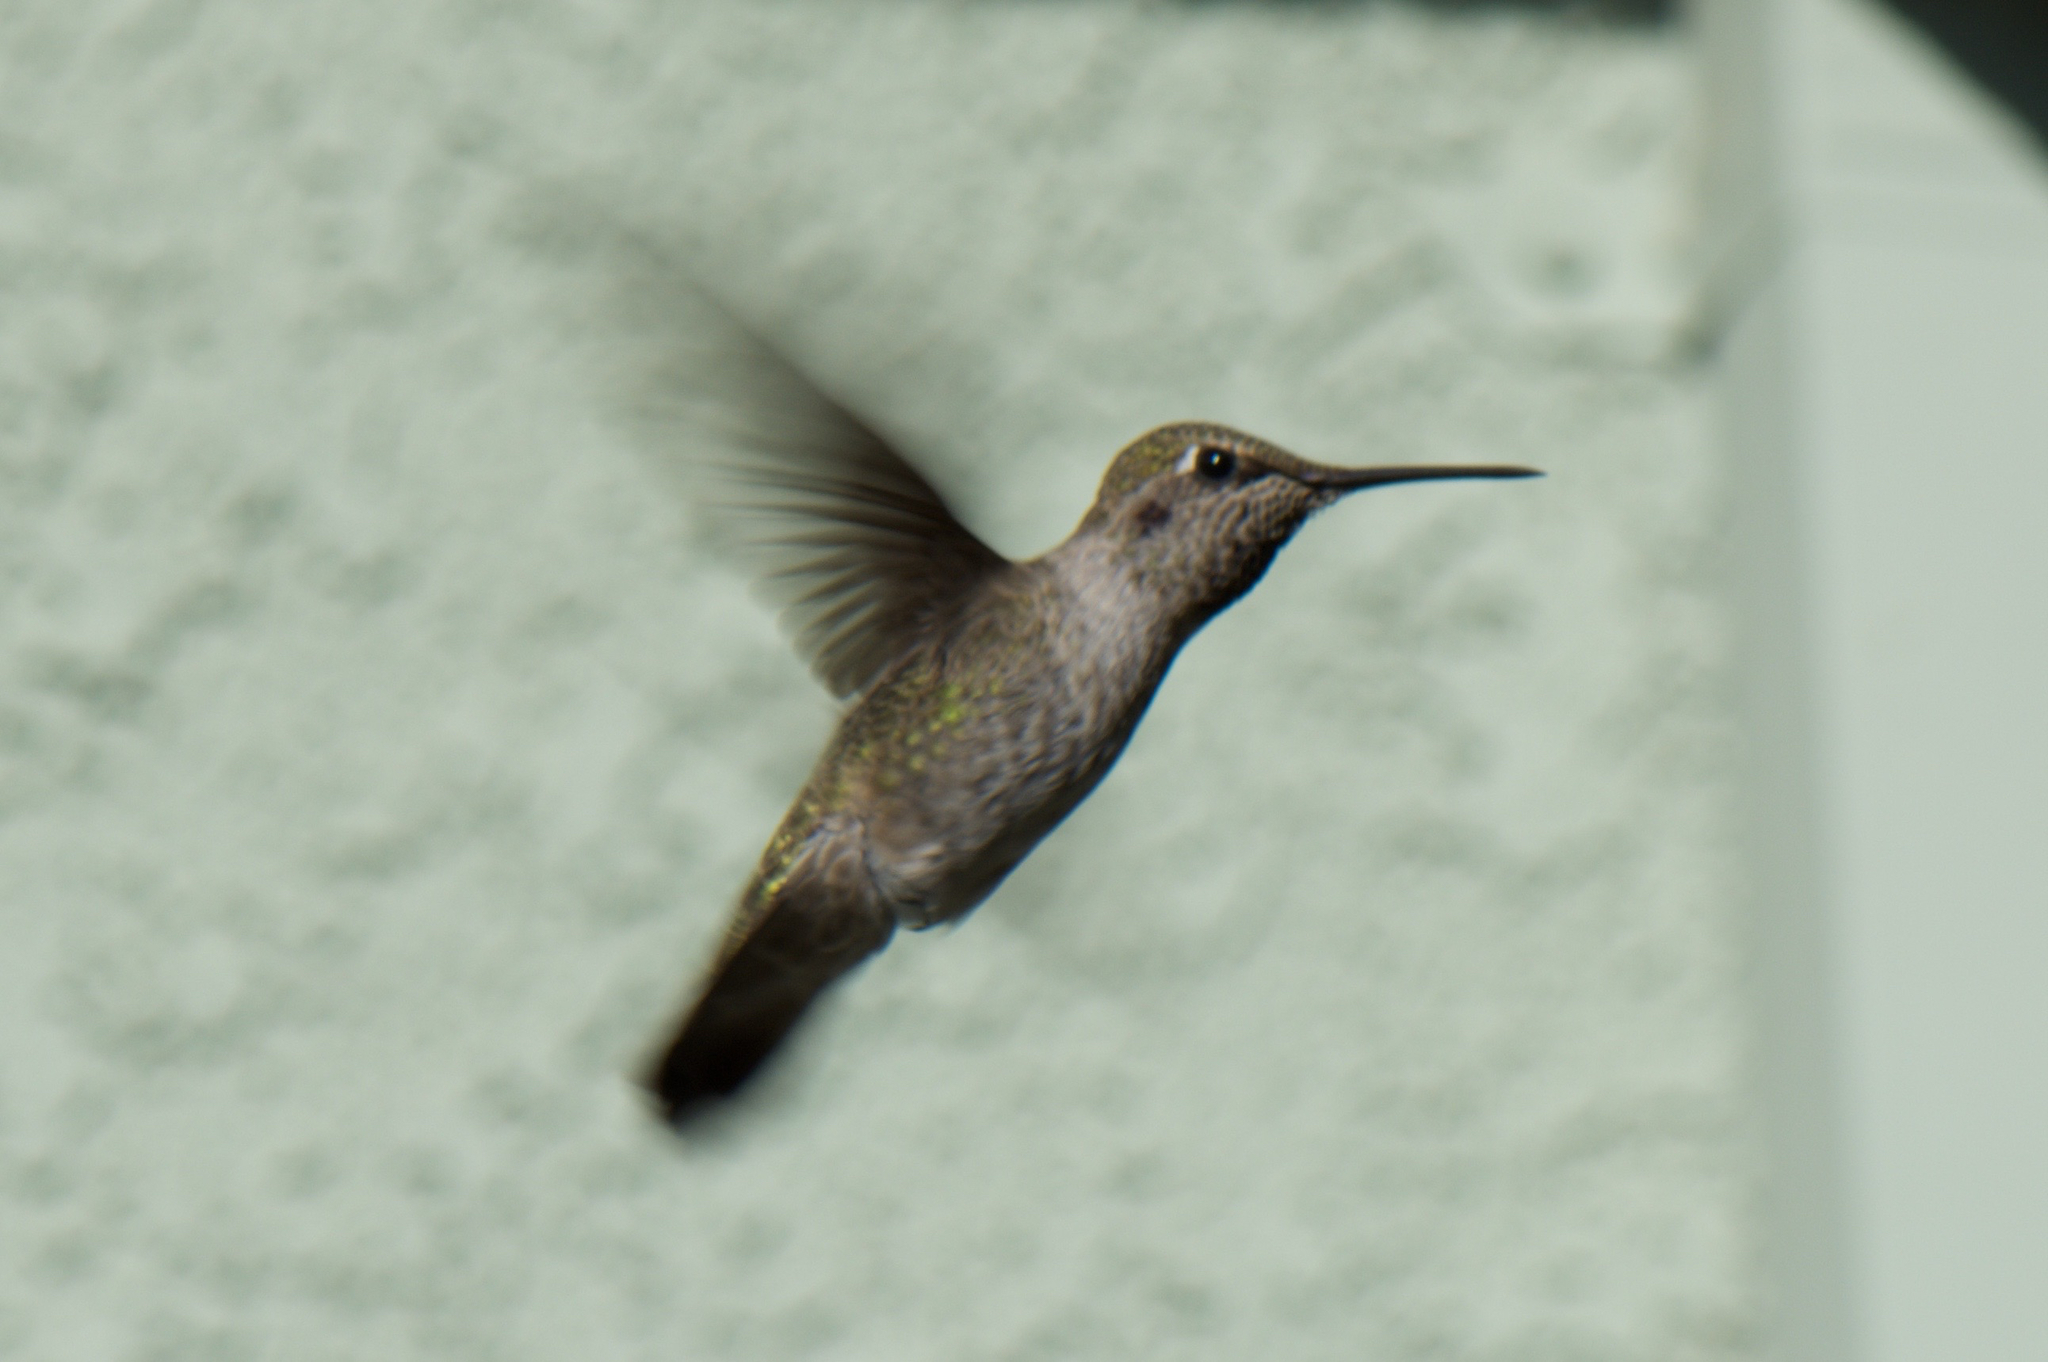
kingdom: Animalia
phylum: Chordata
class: Aves
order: Apodiformes
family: Trochilidae
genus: Calypte
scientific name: Calypte anna
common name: Anna's hummingbird
